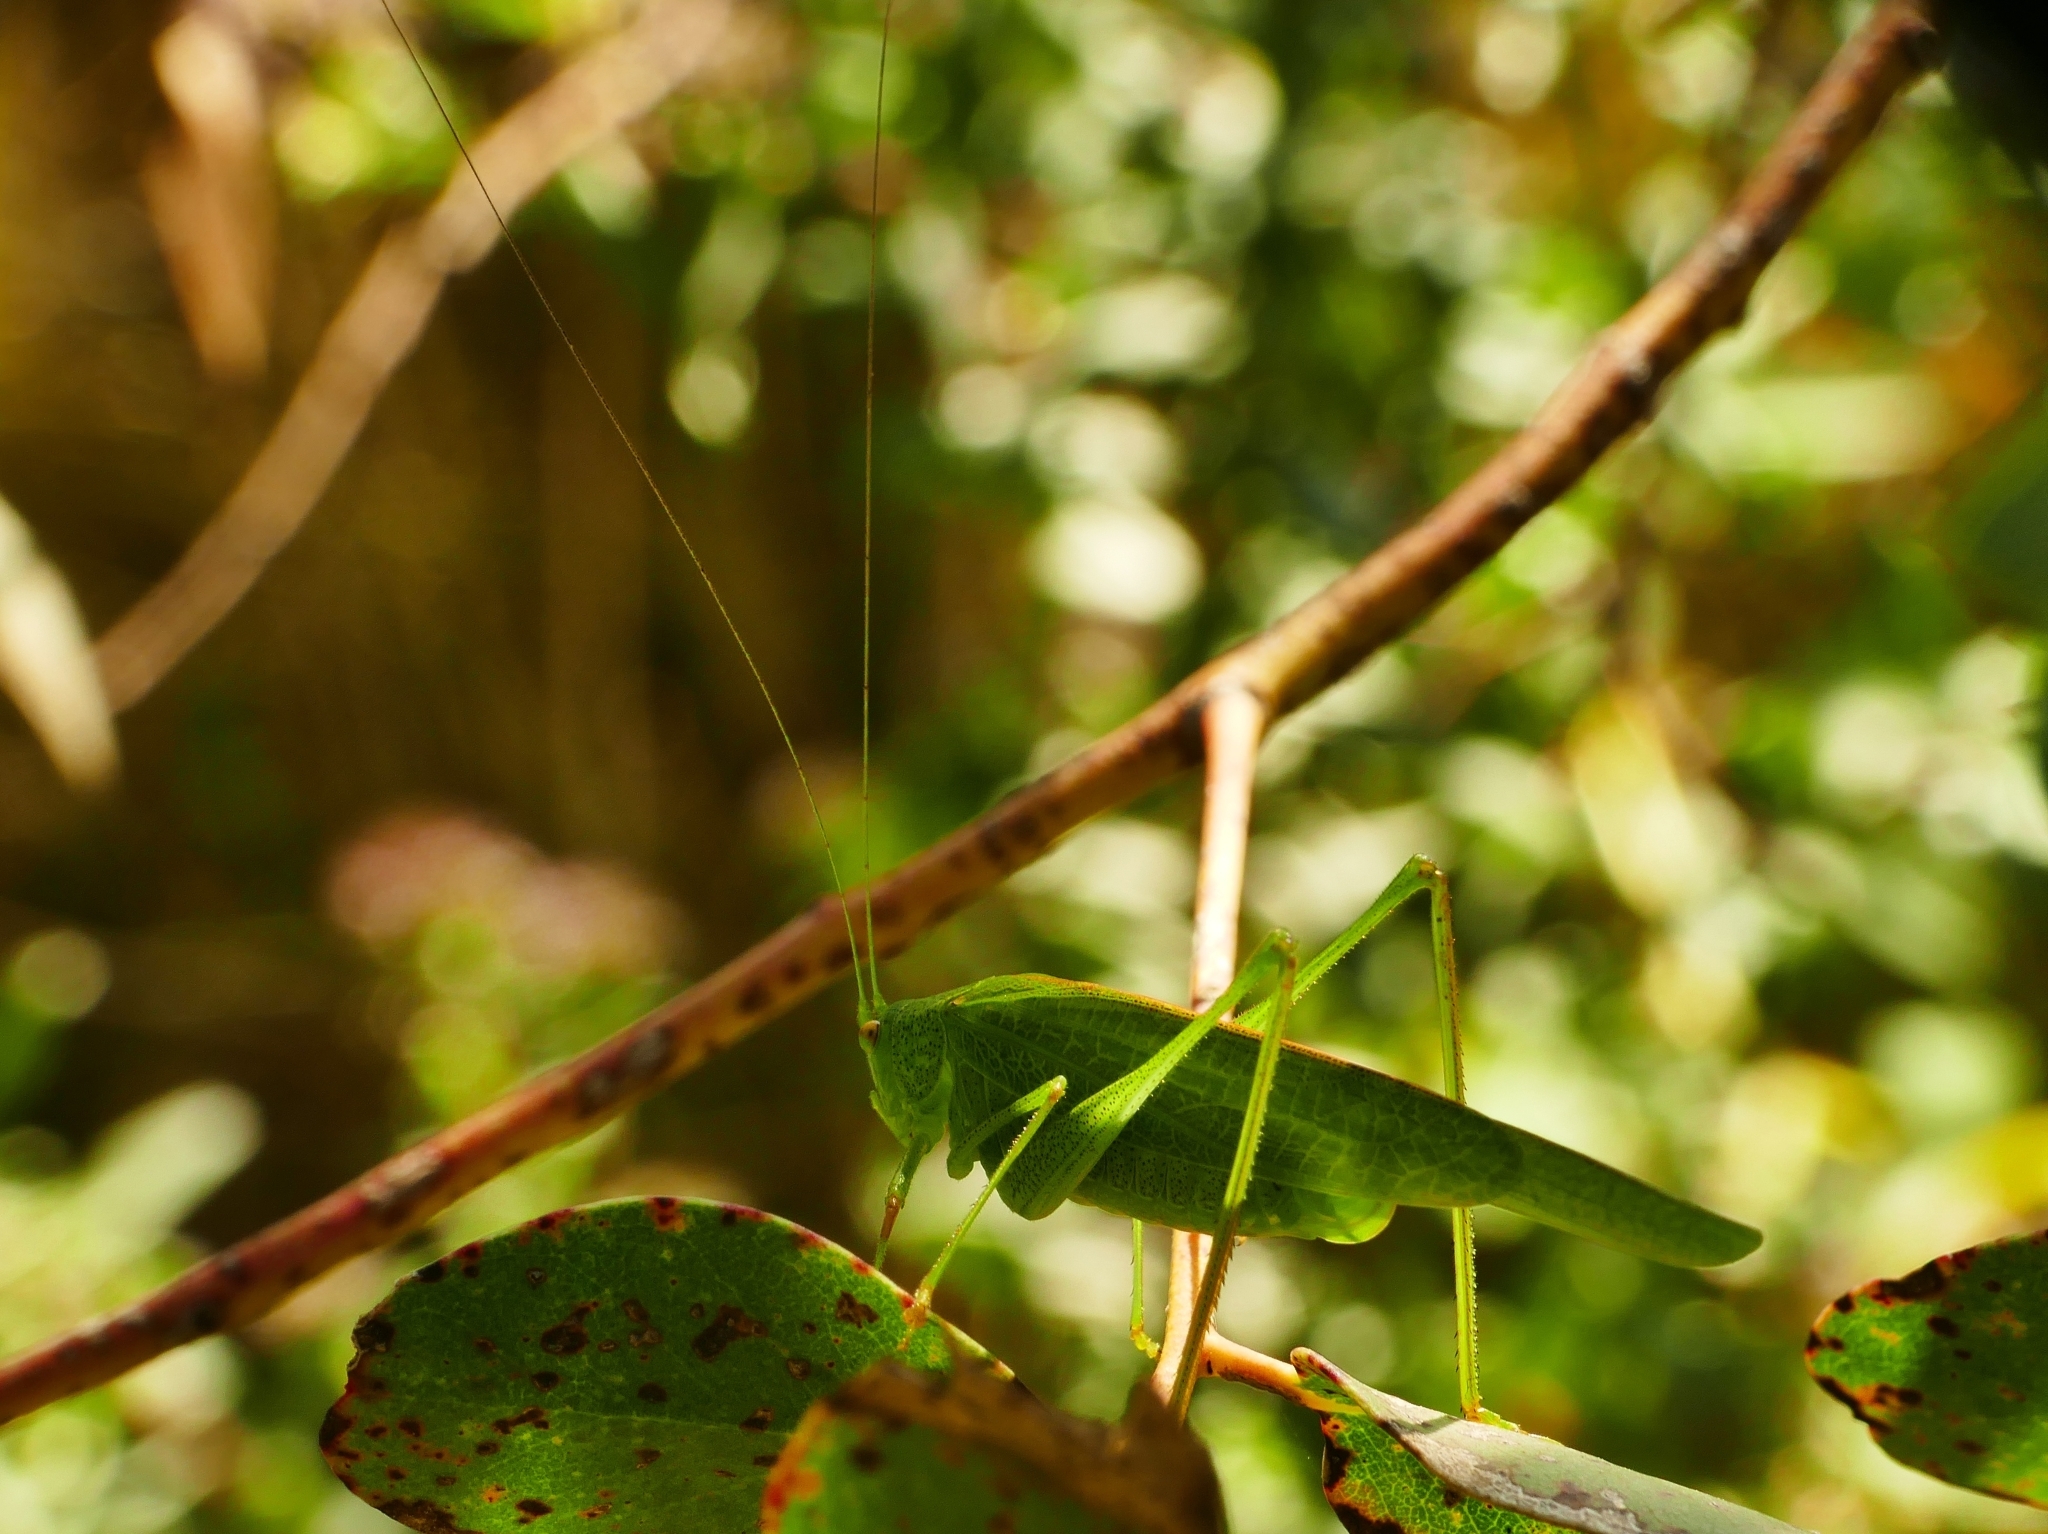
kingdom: Animalia
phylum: Arthropoda
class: Insecta
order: Orthoptera
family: Tettigoniidae
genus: Phaneroptera
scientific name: Phaneroptera nana
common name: Southern sickle bush-cricket
